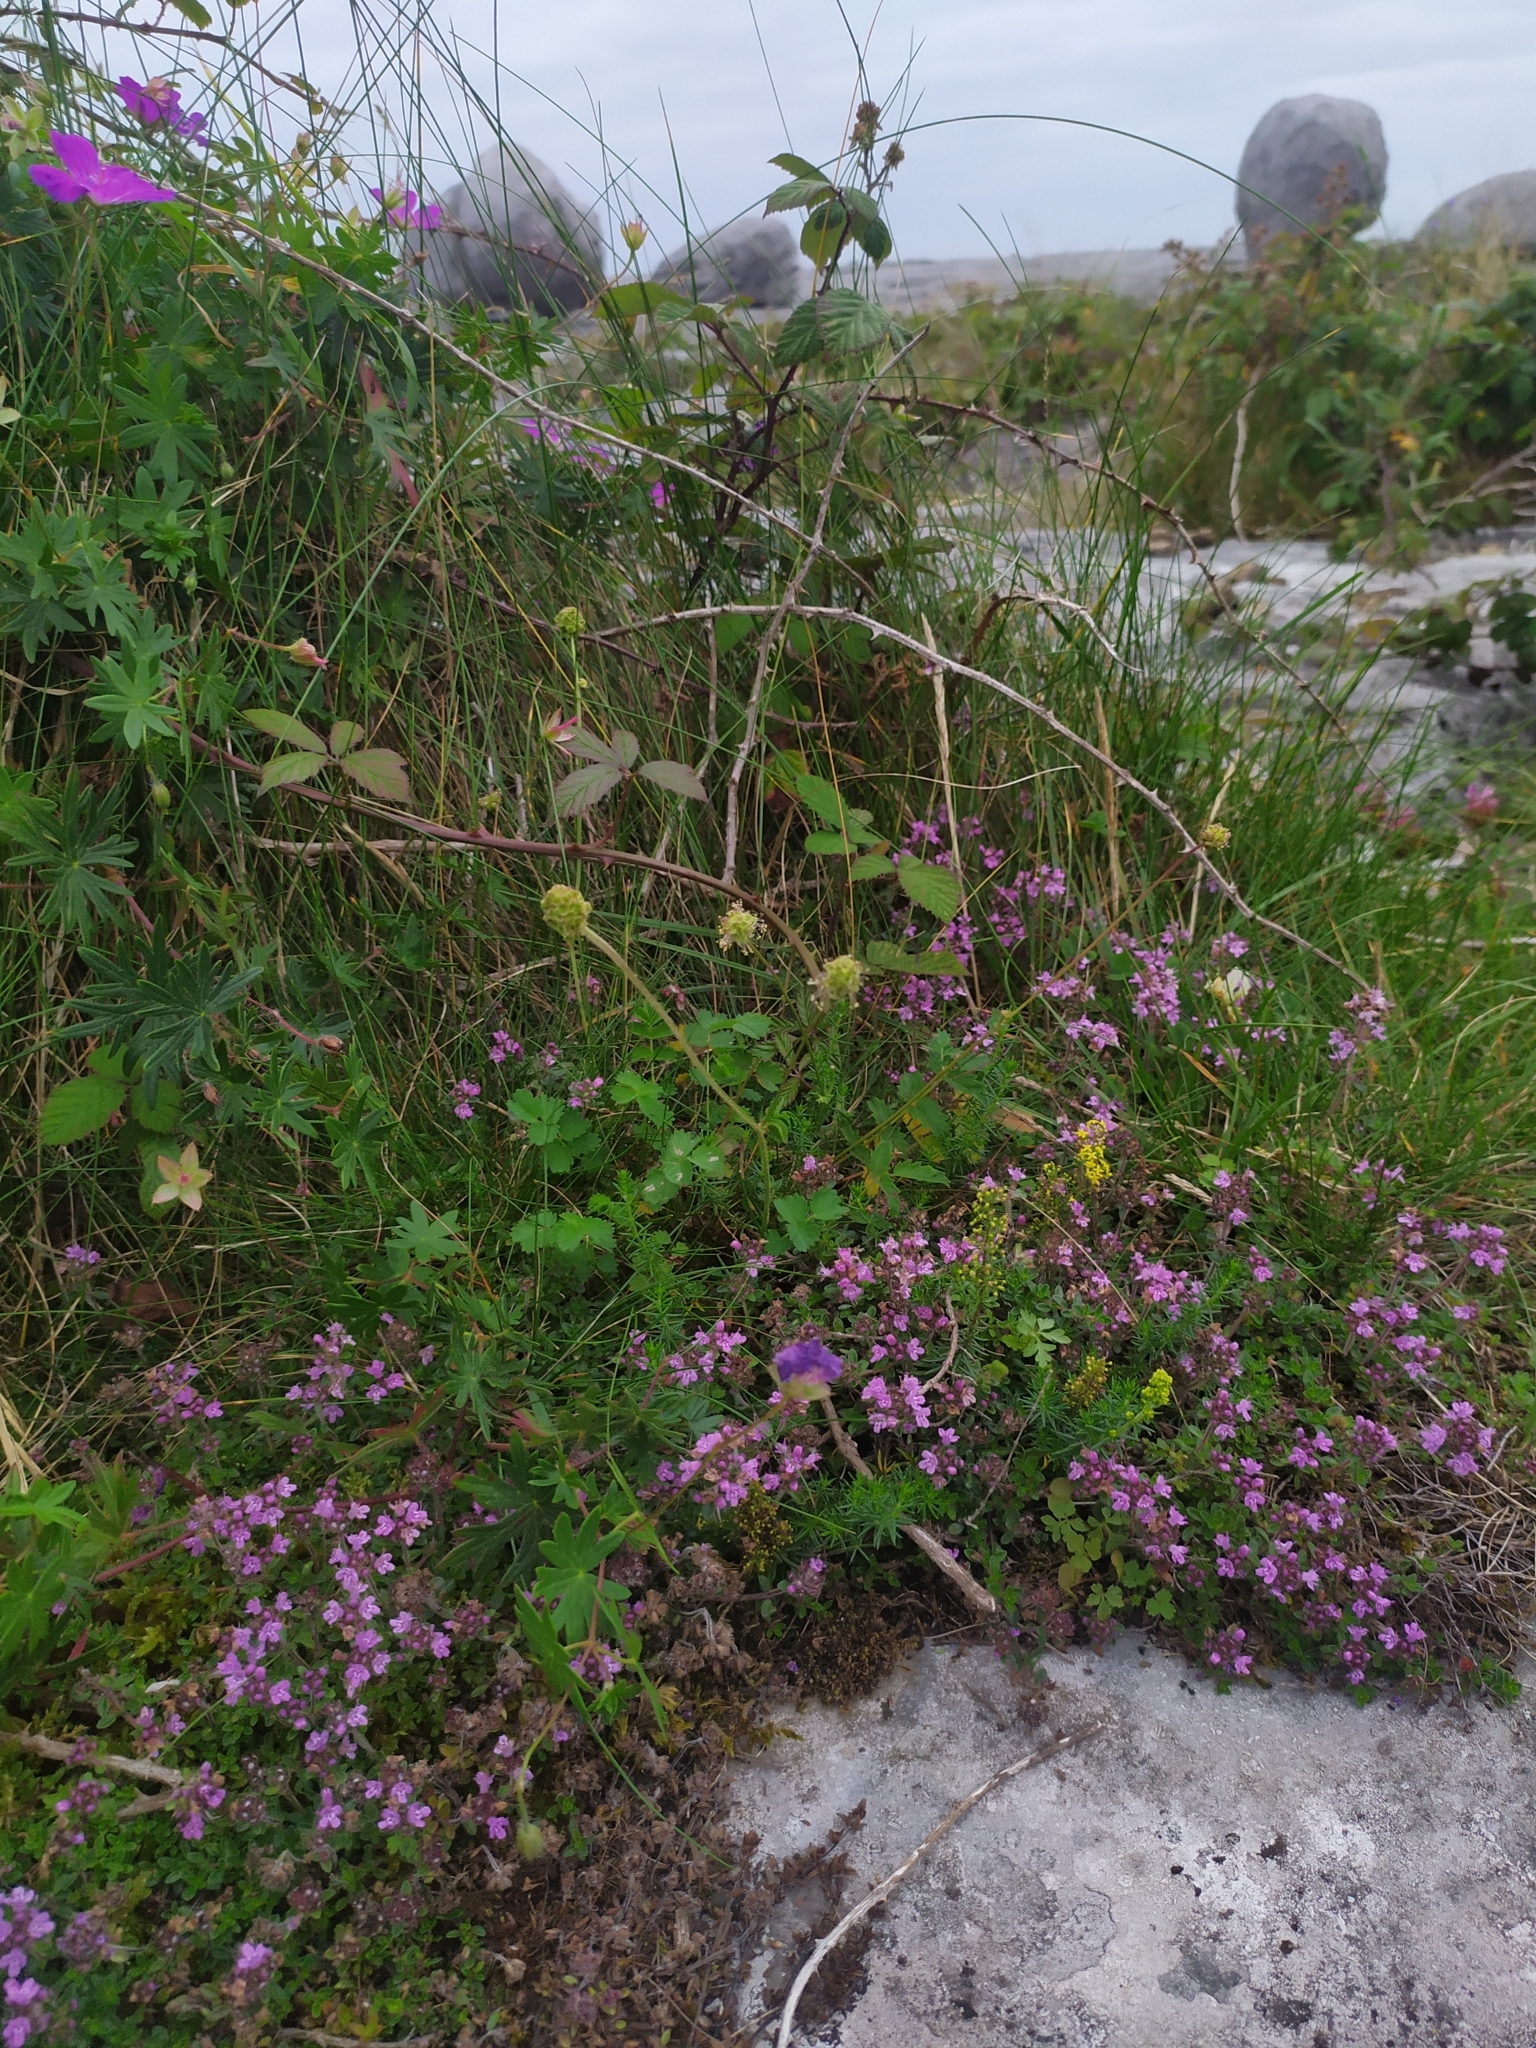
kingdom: Plantae
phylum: Tracheophyta
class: Magnoliopsida
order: Rosales
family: Rosaceae
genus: Poterium
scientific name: Poterium sanguisorba
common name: Salad burnet
